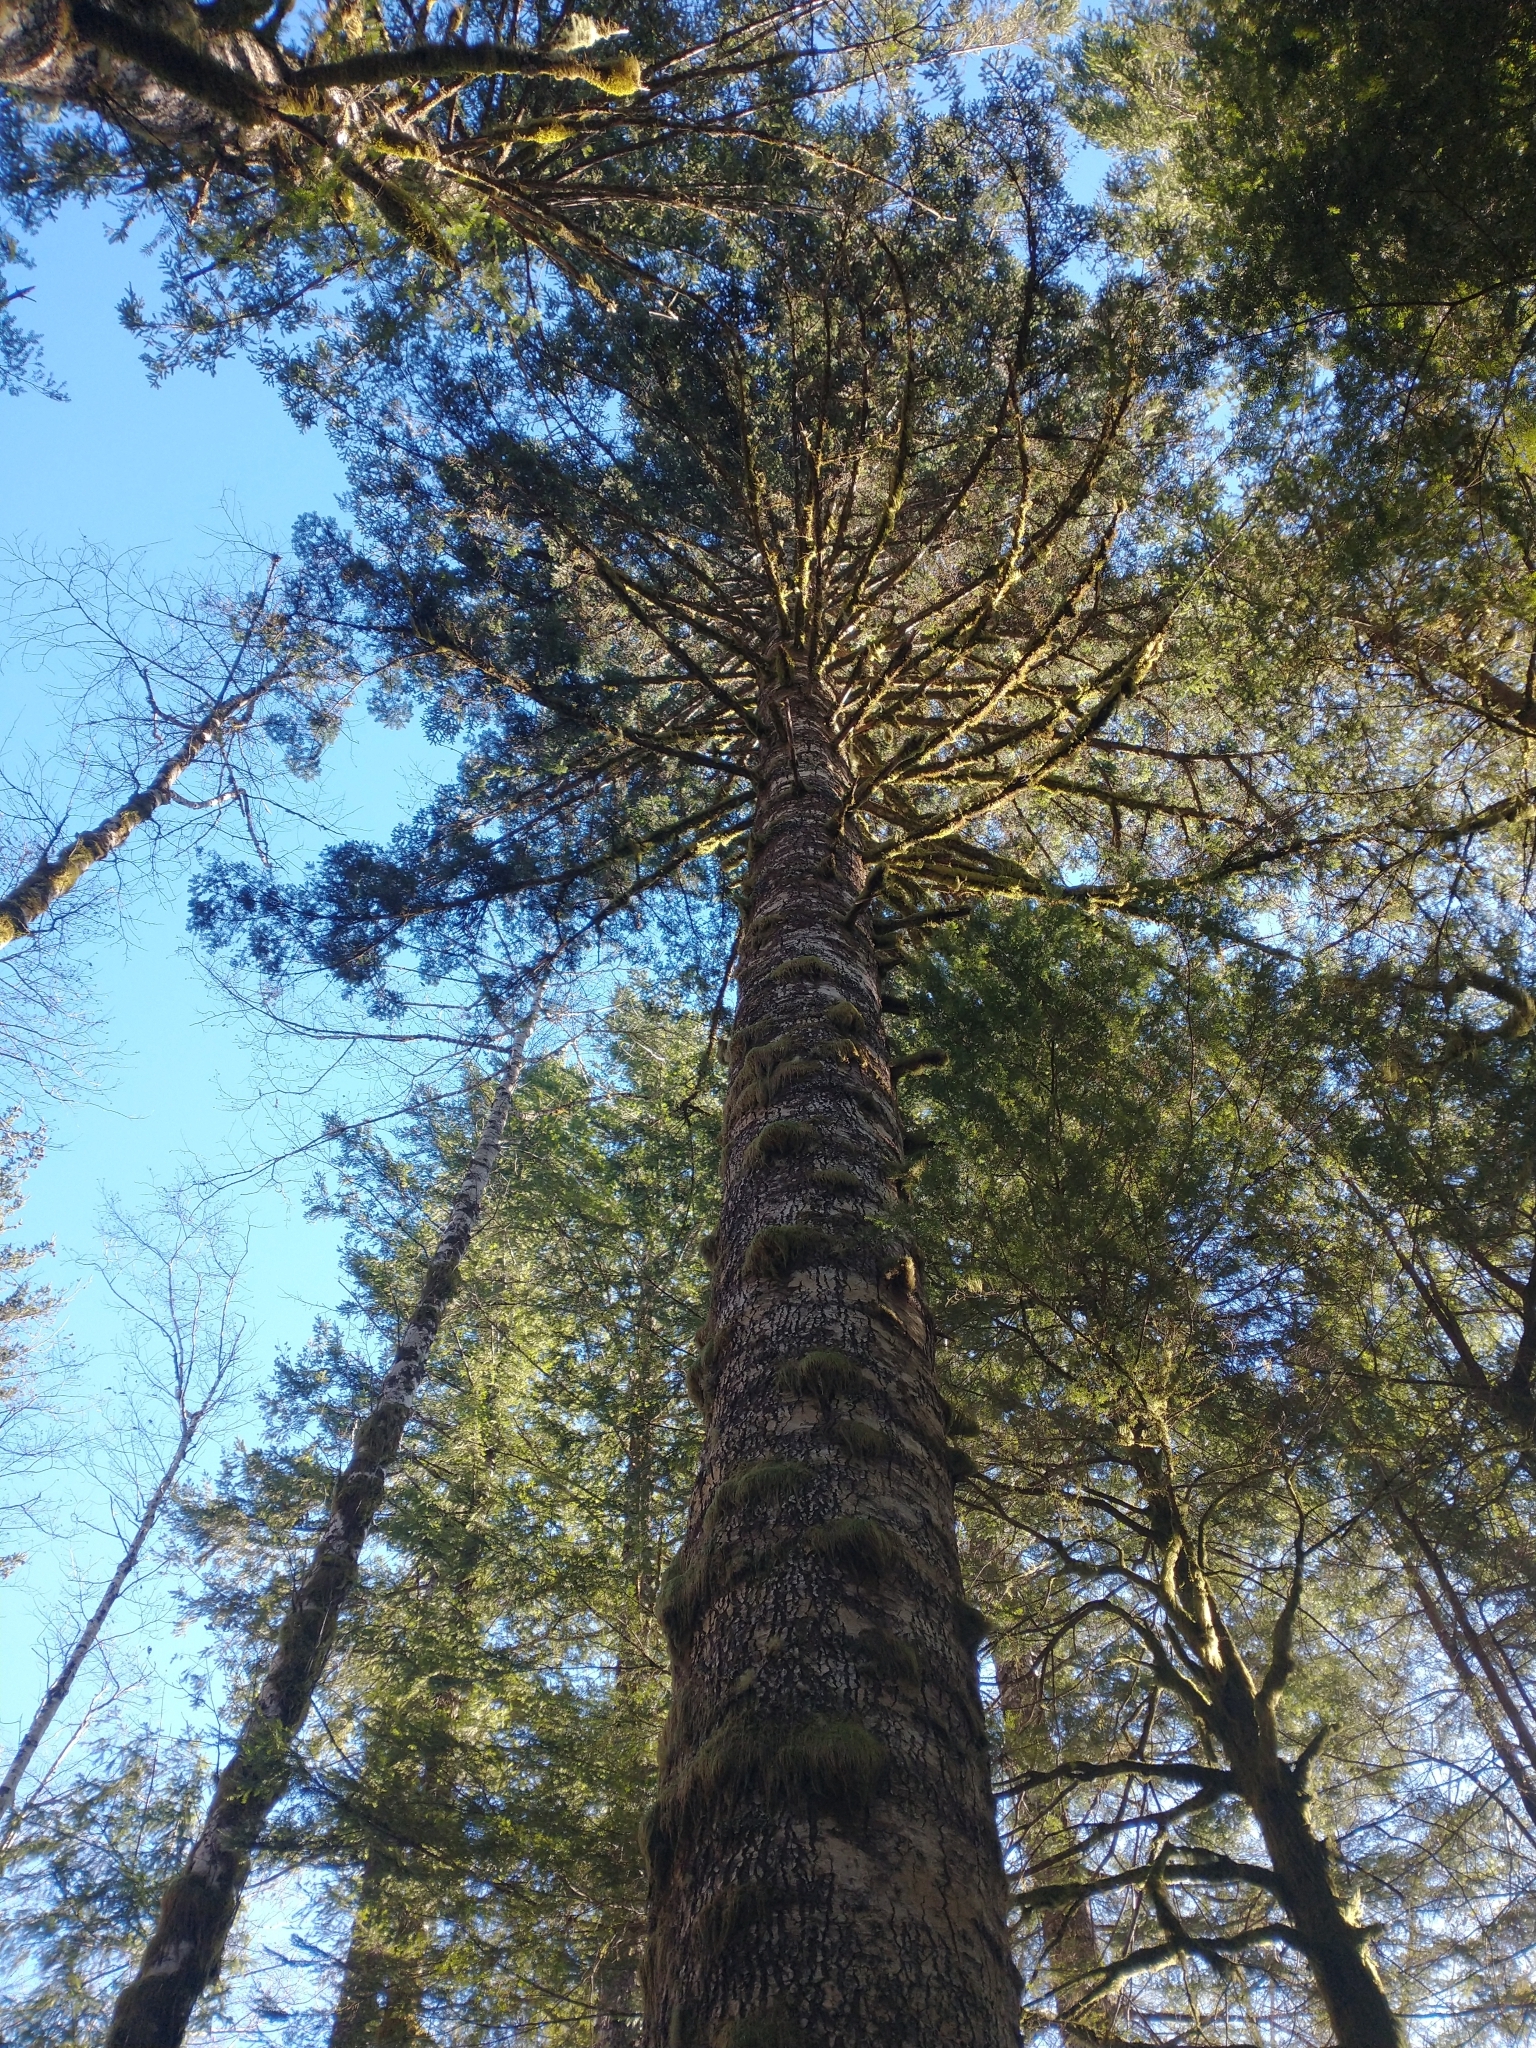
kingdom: Plantae
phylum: Tracheophyta
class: Pinopsida
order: Pinales
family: Pinaceae
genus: Abies
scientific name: Abies procera
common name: Noble fir
